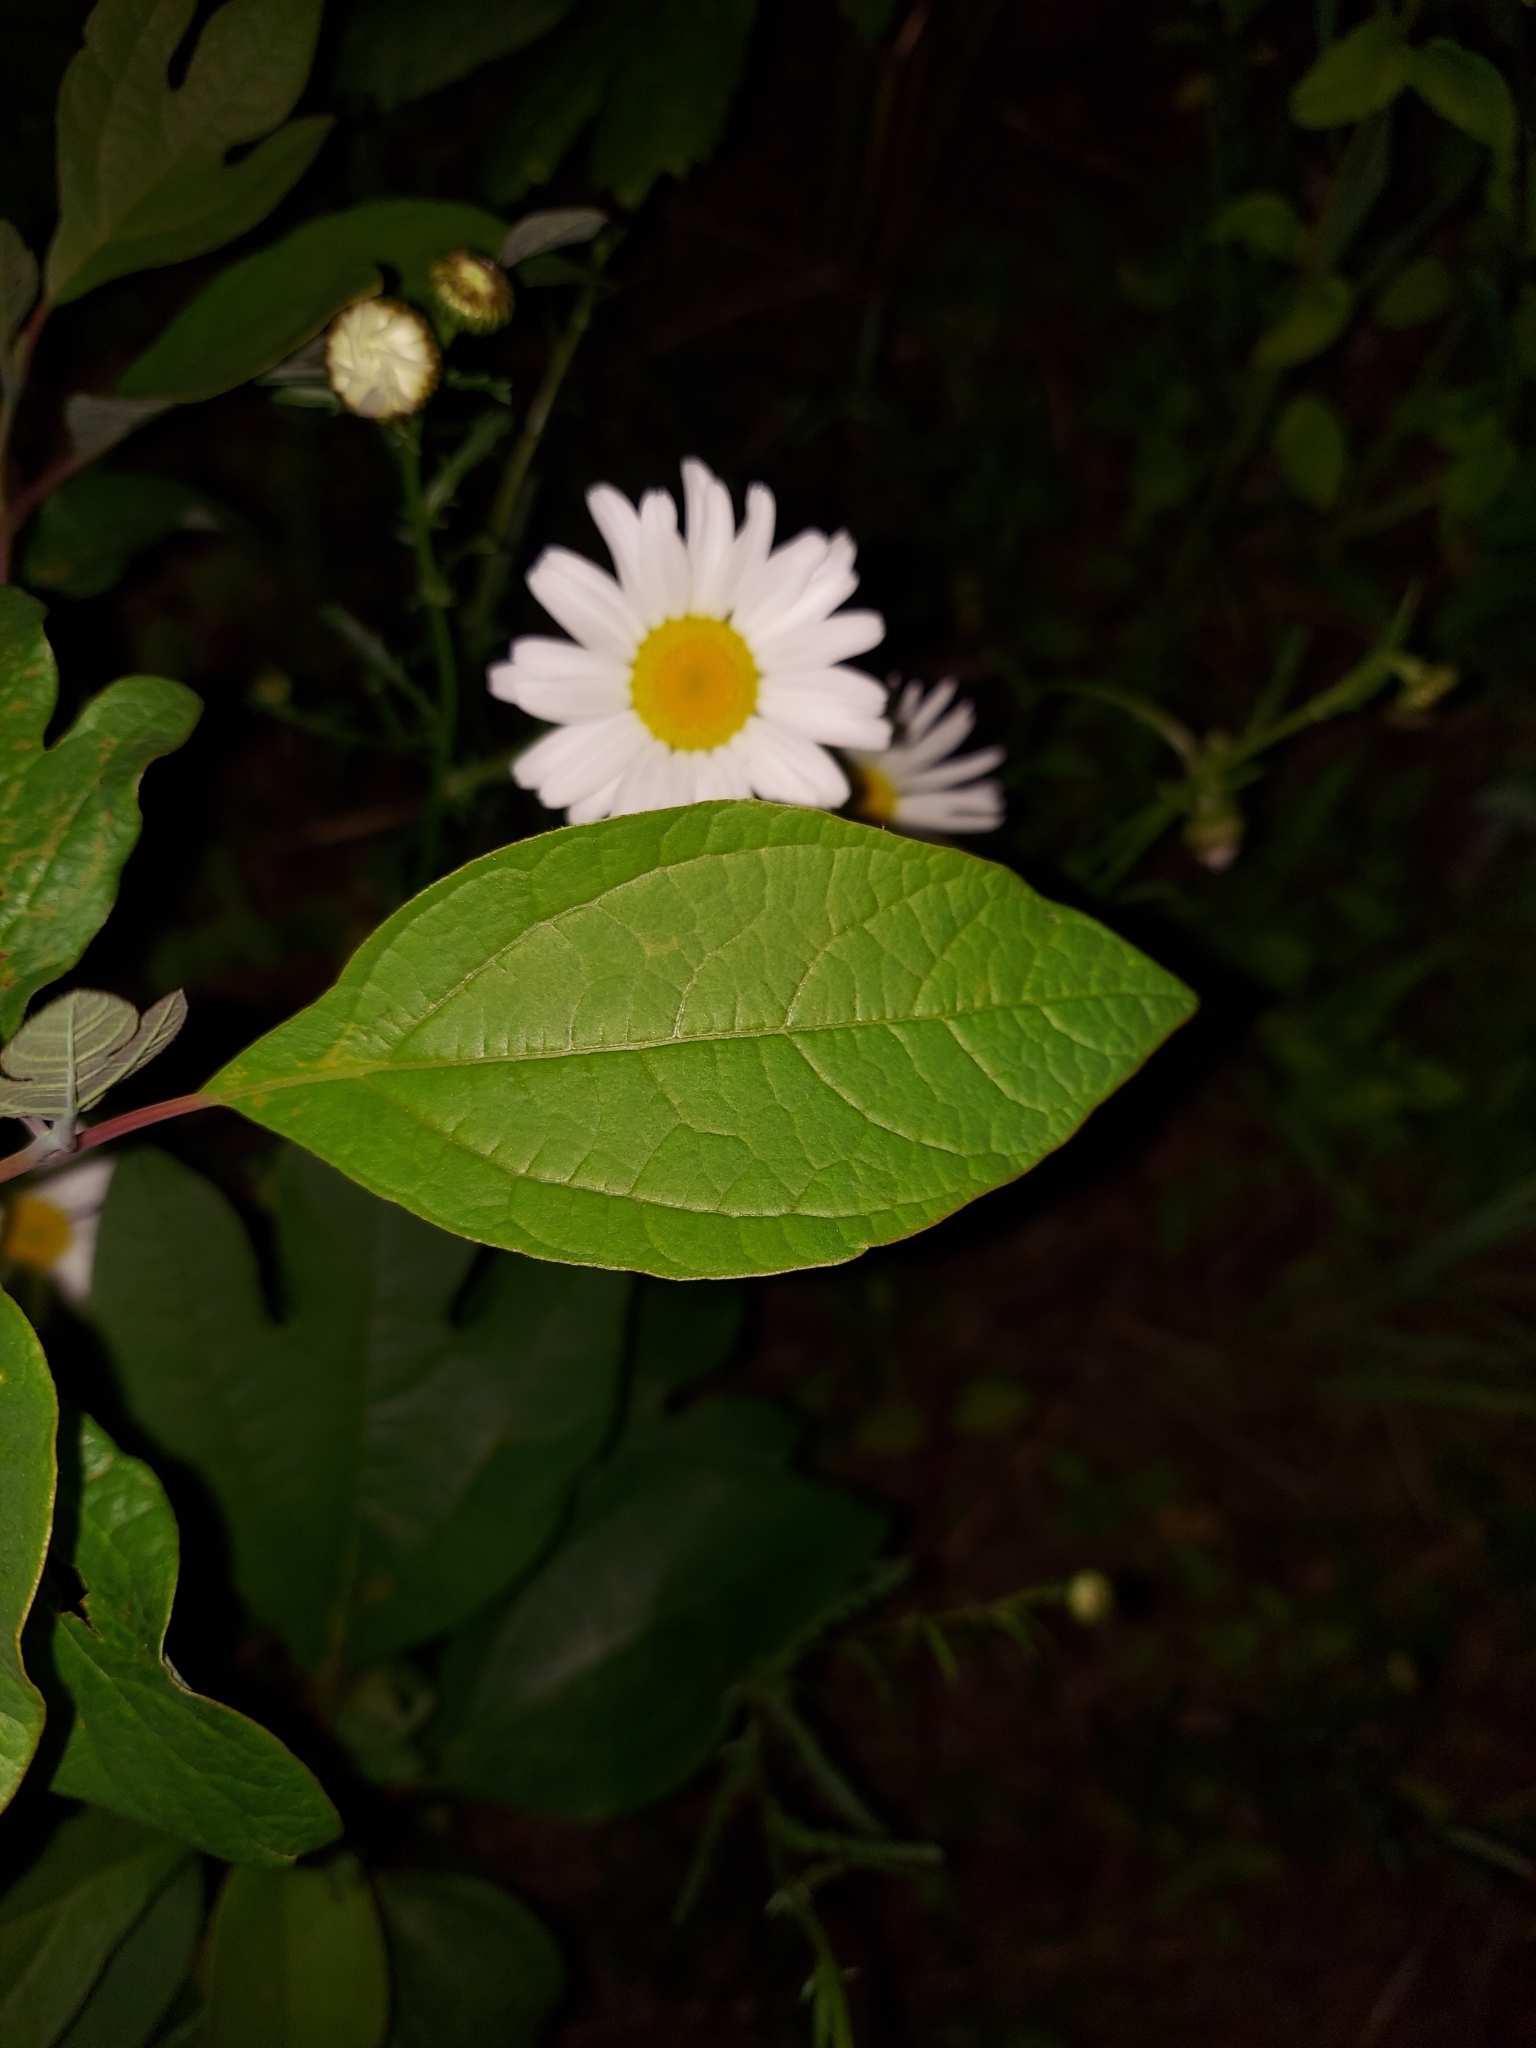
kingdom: Plantae
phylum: Tracheophyta
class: Magnoliopsida
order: Laurales
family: Lauraceae
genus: Sassafras
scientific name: Sassafras albidum
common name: Sassafras
